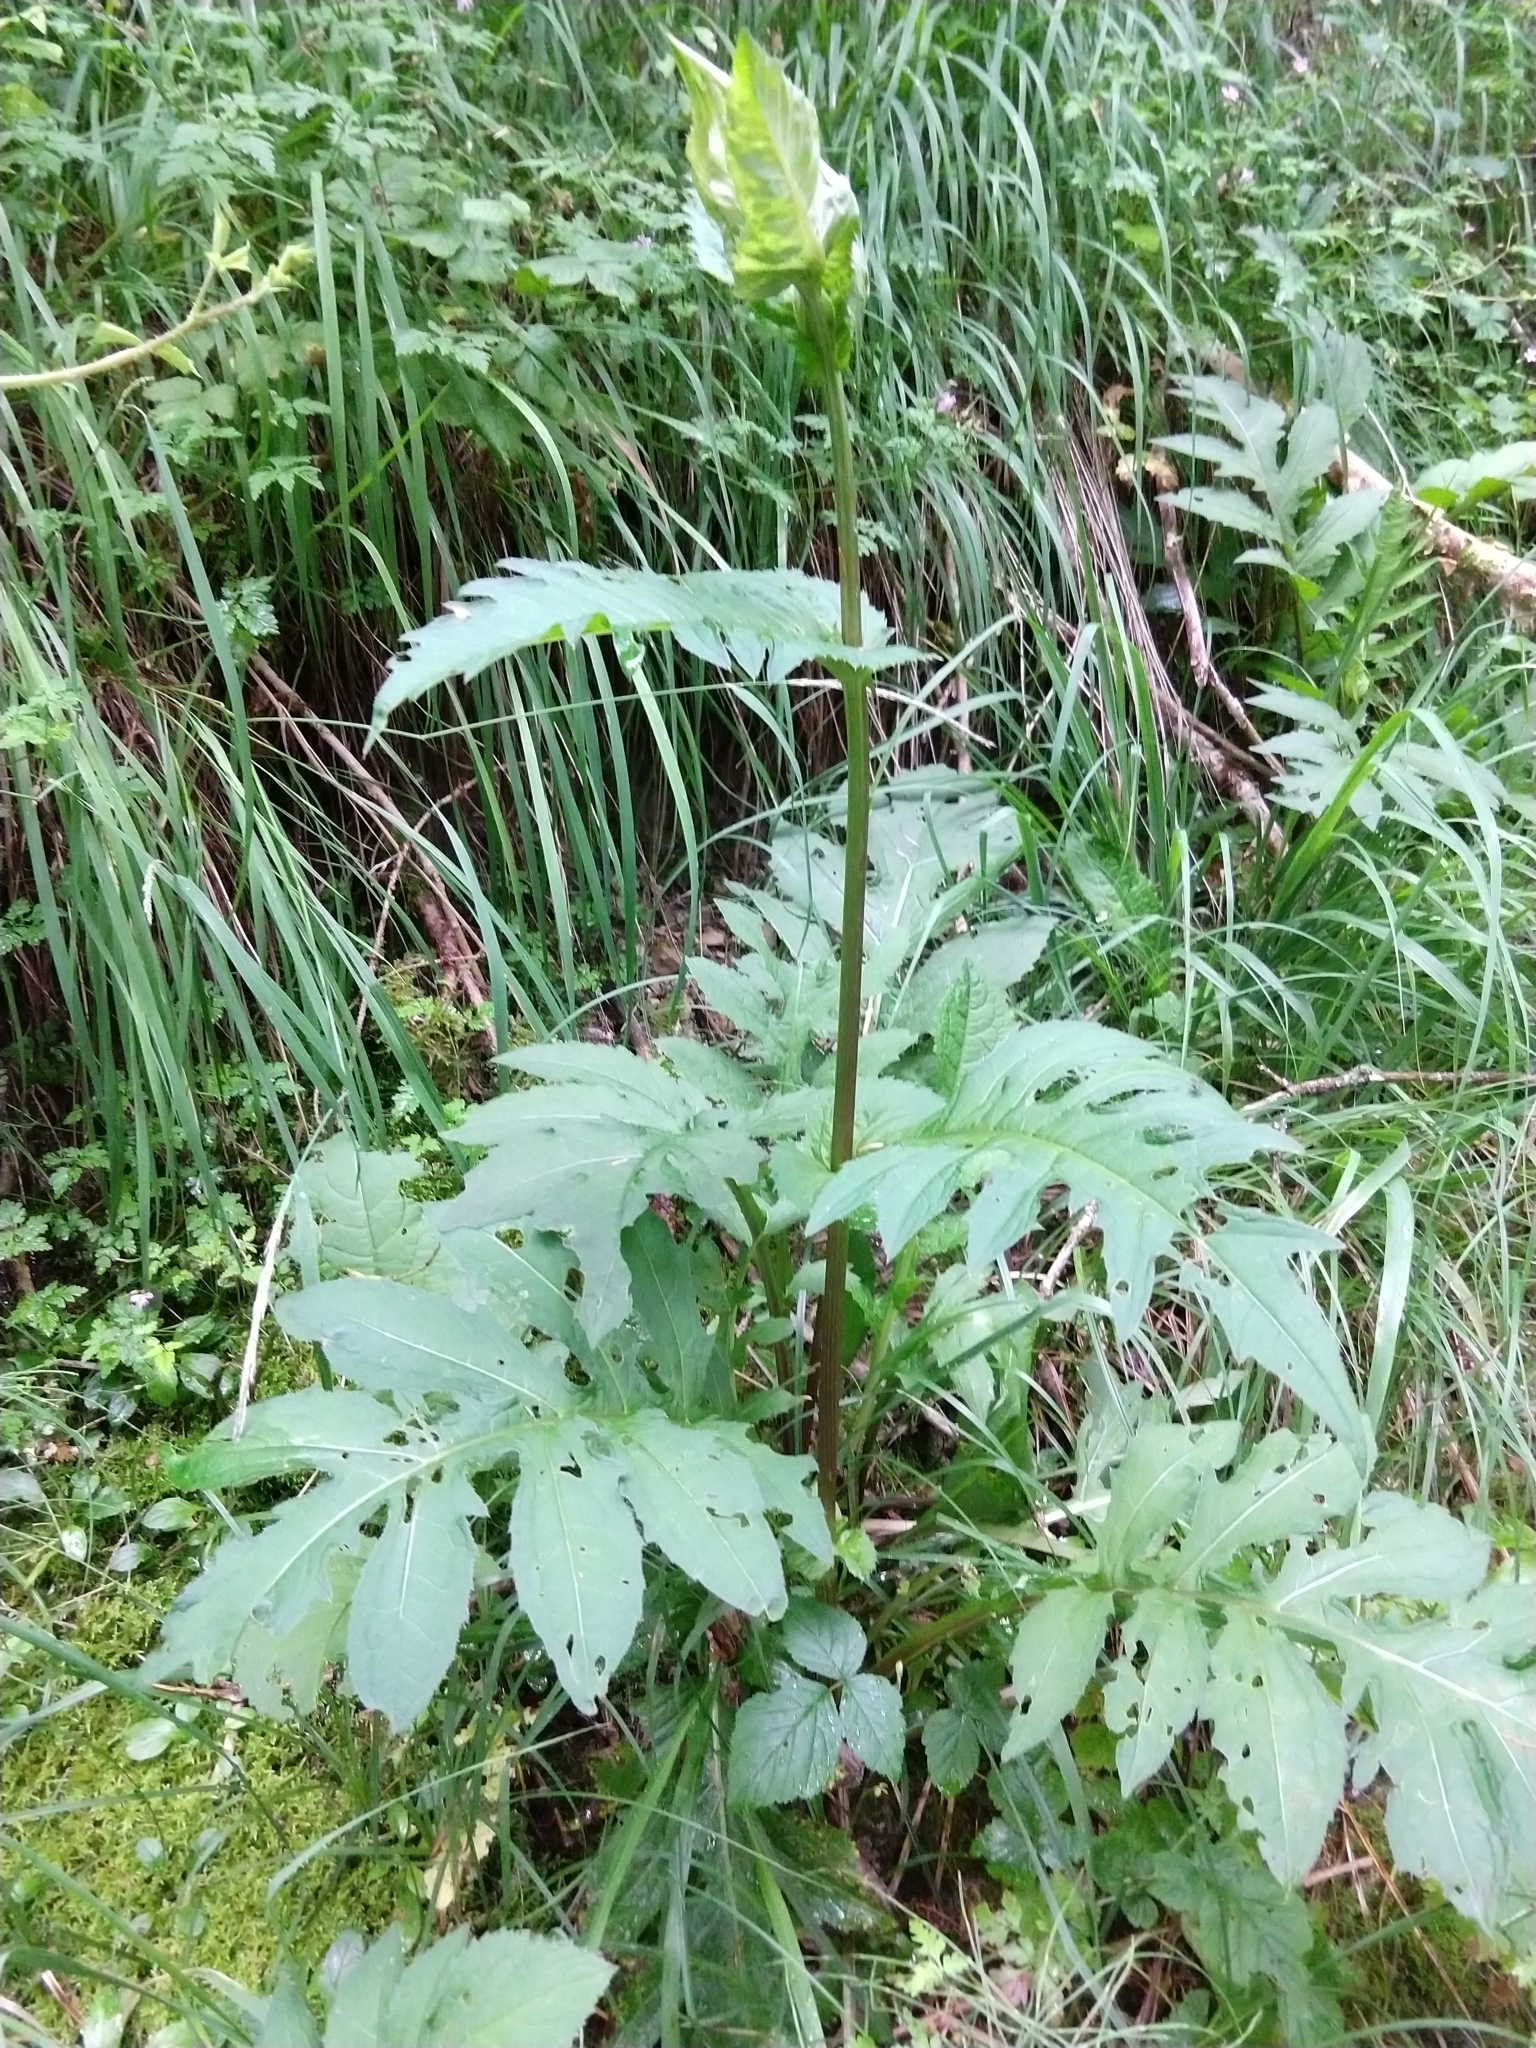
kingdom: Plantae
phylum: Tracheophyta
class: Magnoliopsida
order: Asterales
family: Asteraceae
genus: Cirsium
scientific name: Cirsium oleraceum
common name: Cabbage thistle
